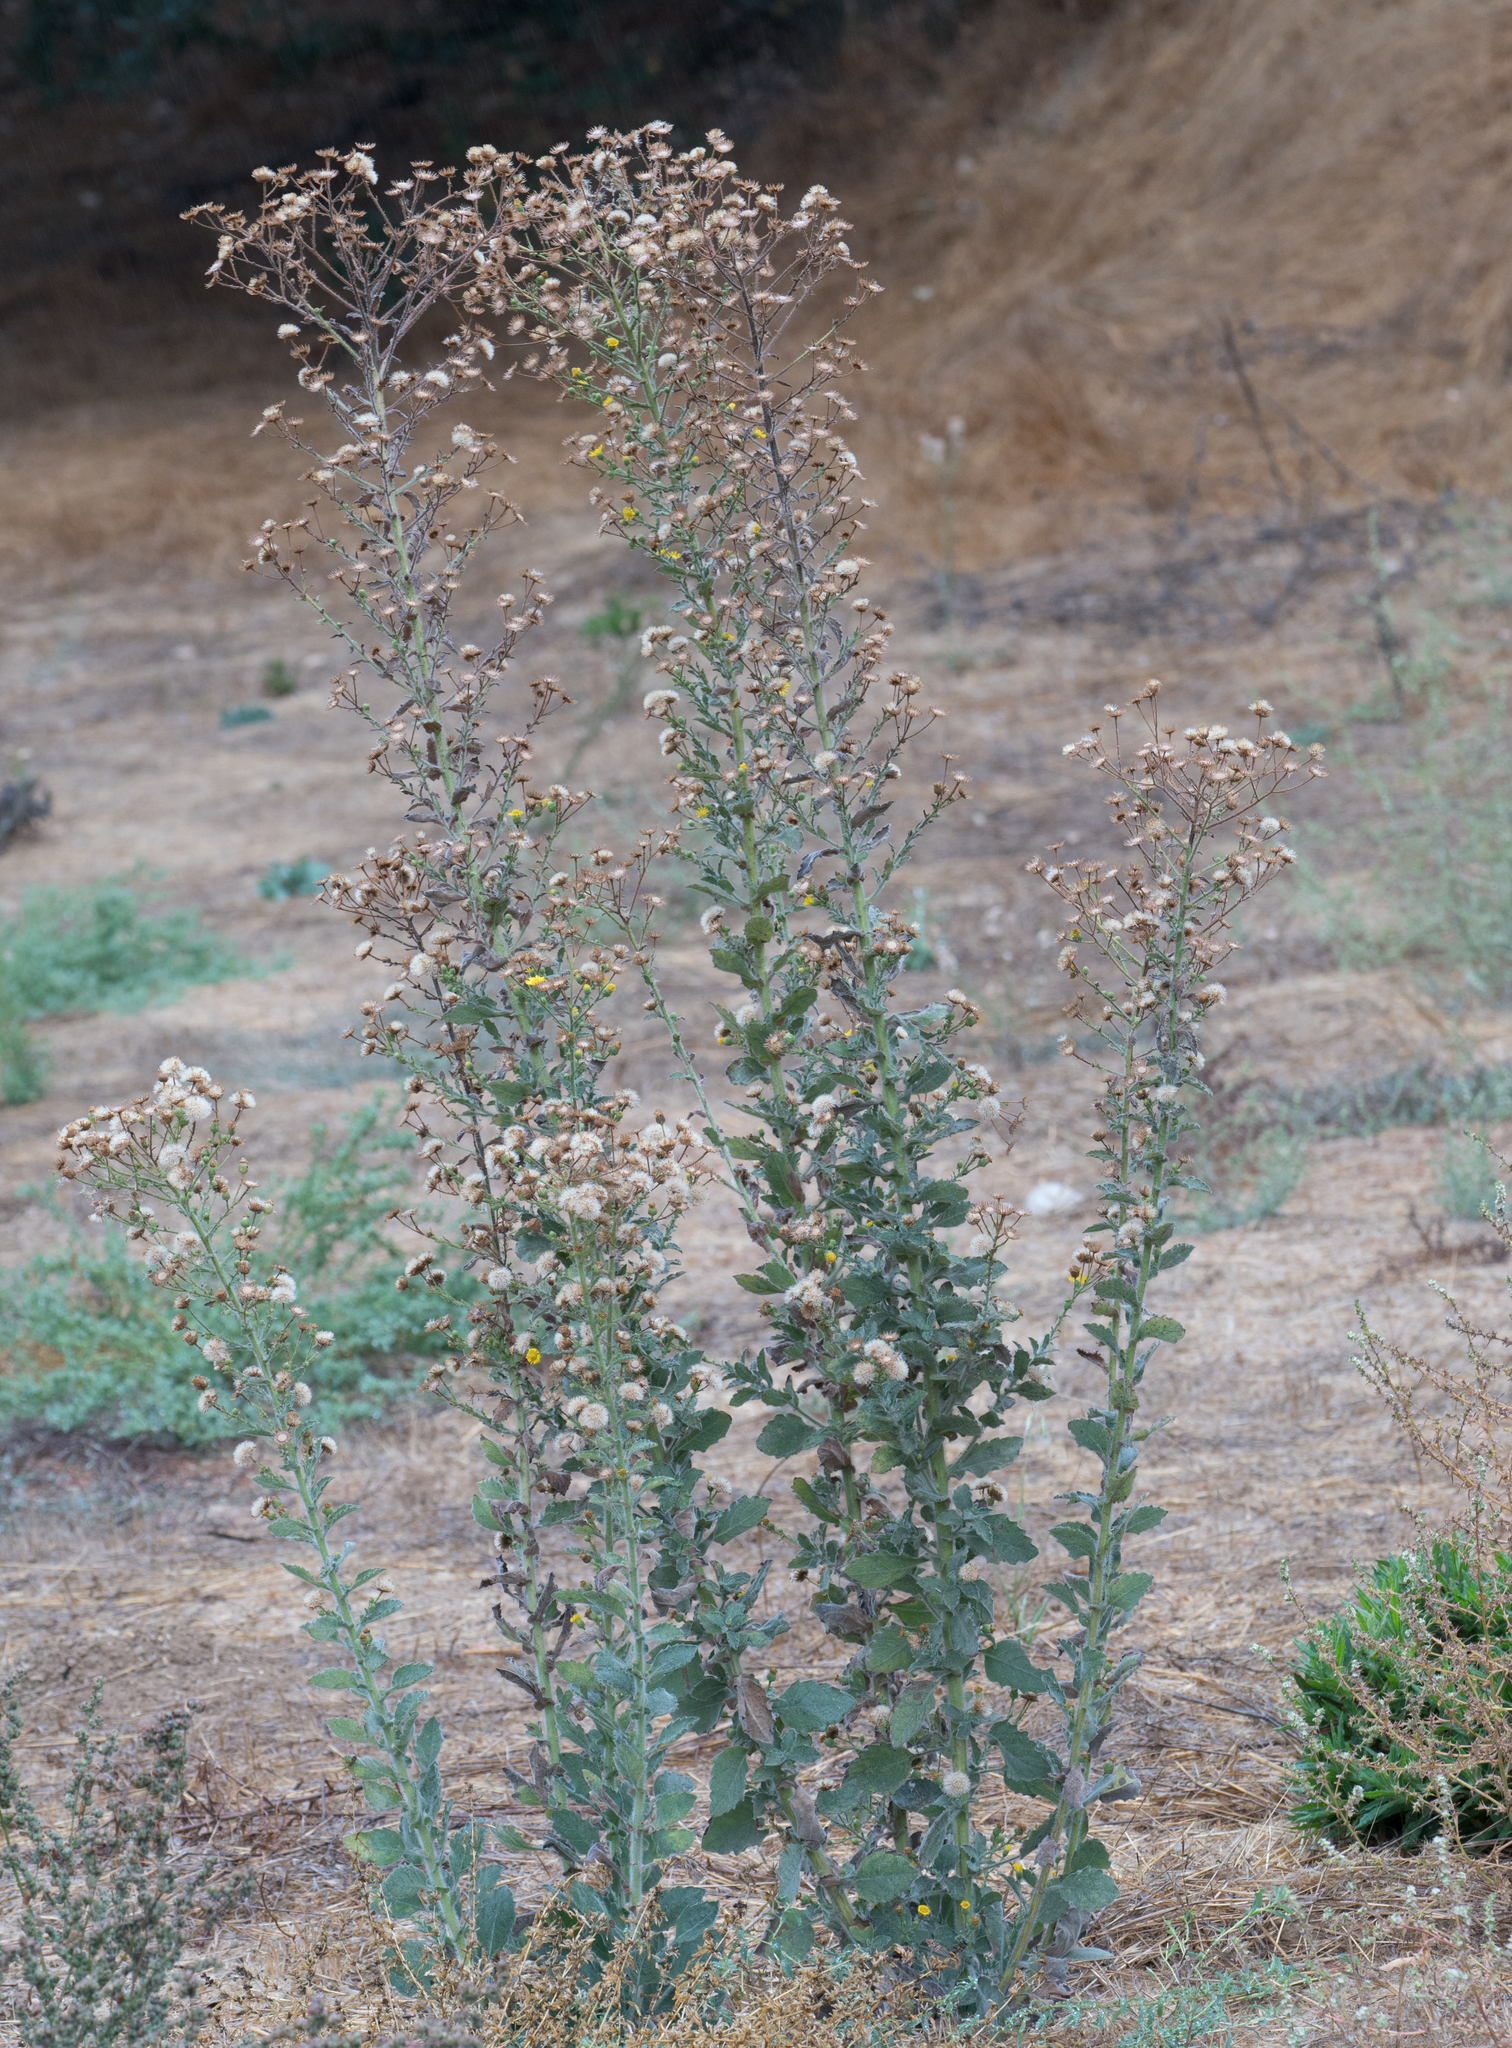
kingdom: Plantae
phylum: Tracheophyta
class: Magnoliopsida
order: Asterales
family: Asteraceae
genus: Heterotheca
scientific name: Heterotheca grandiflora
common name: Telegraphweed
